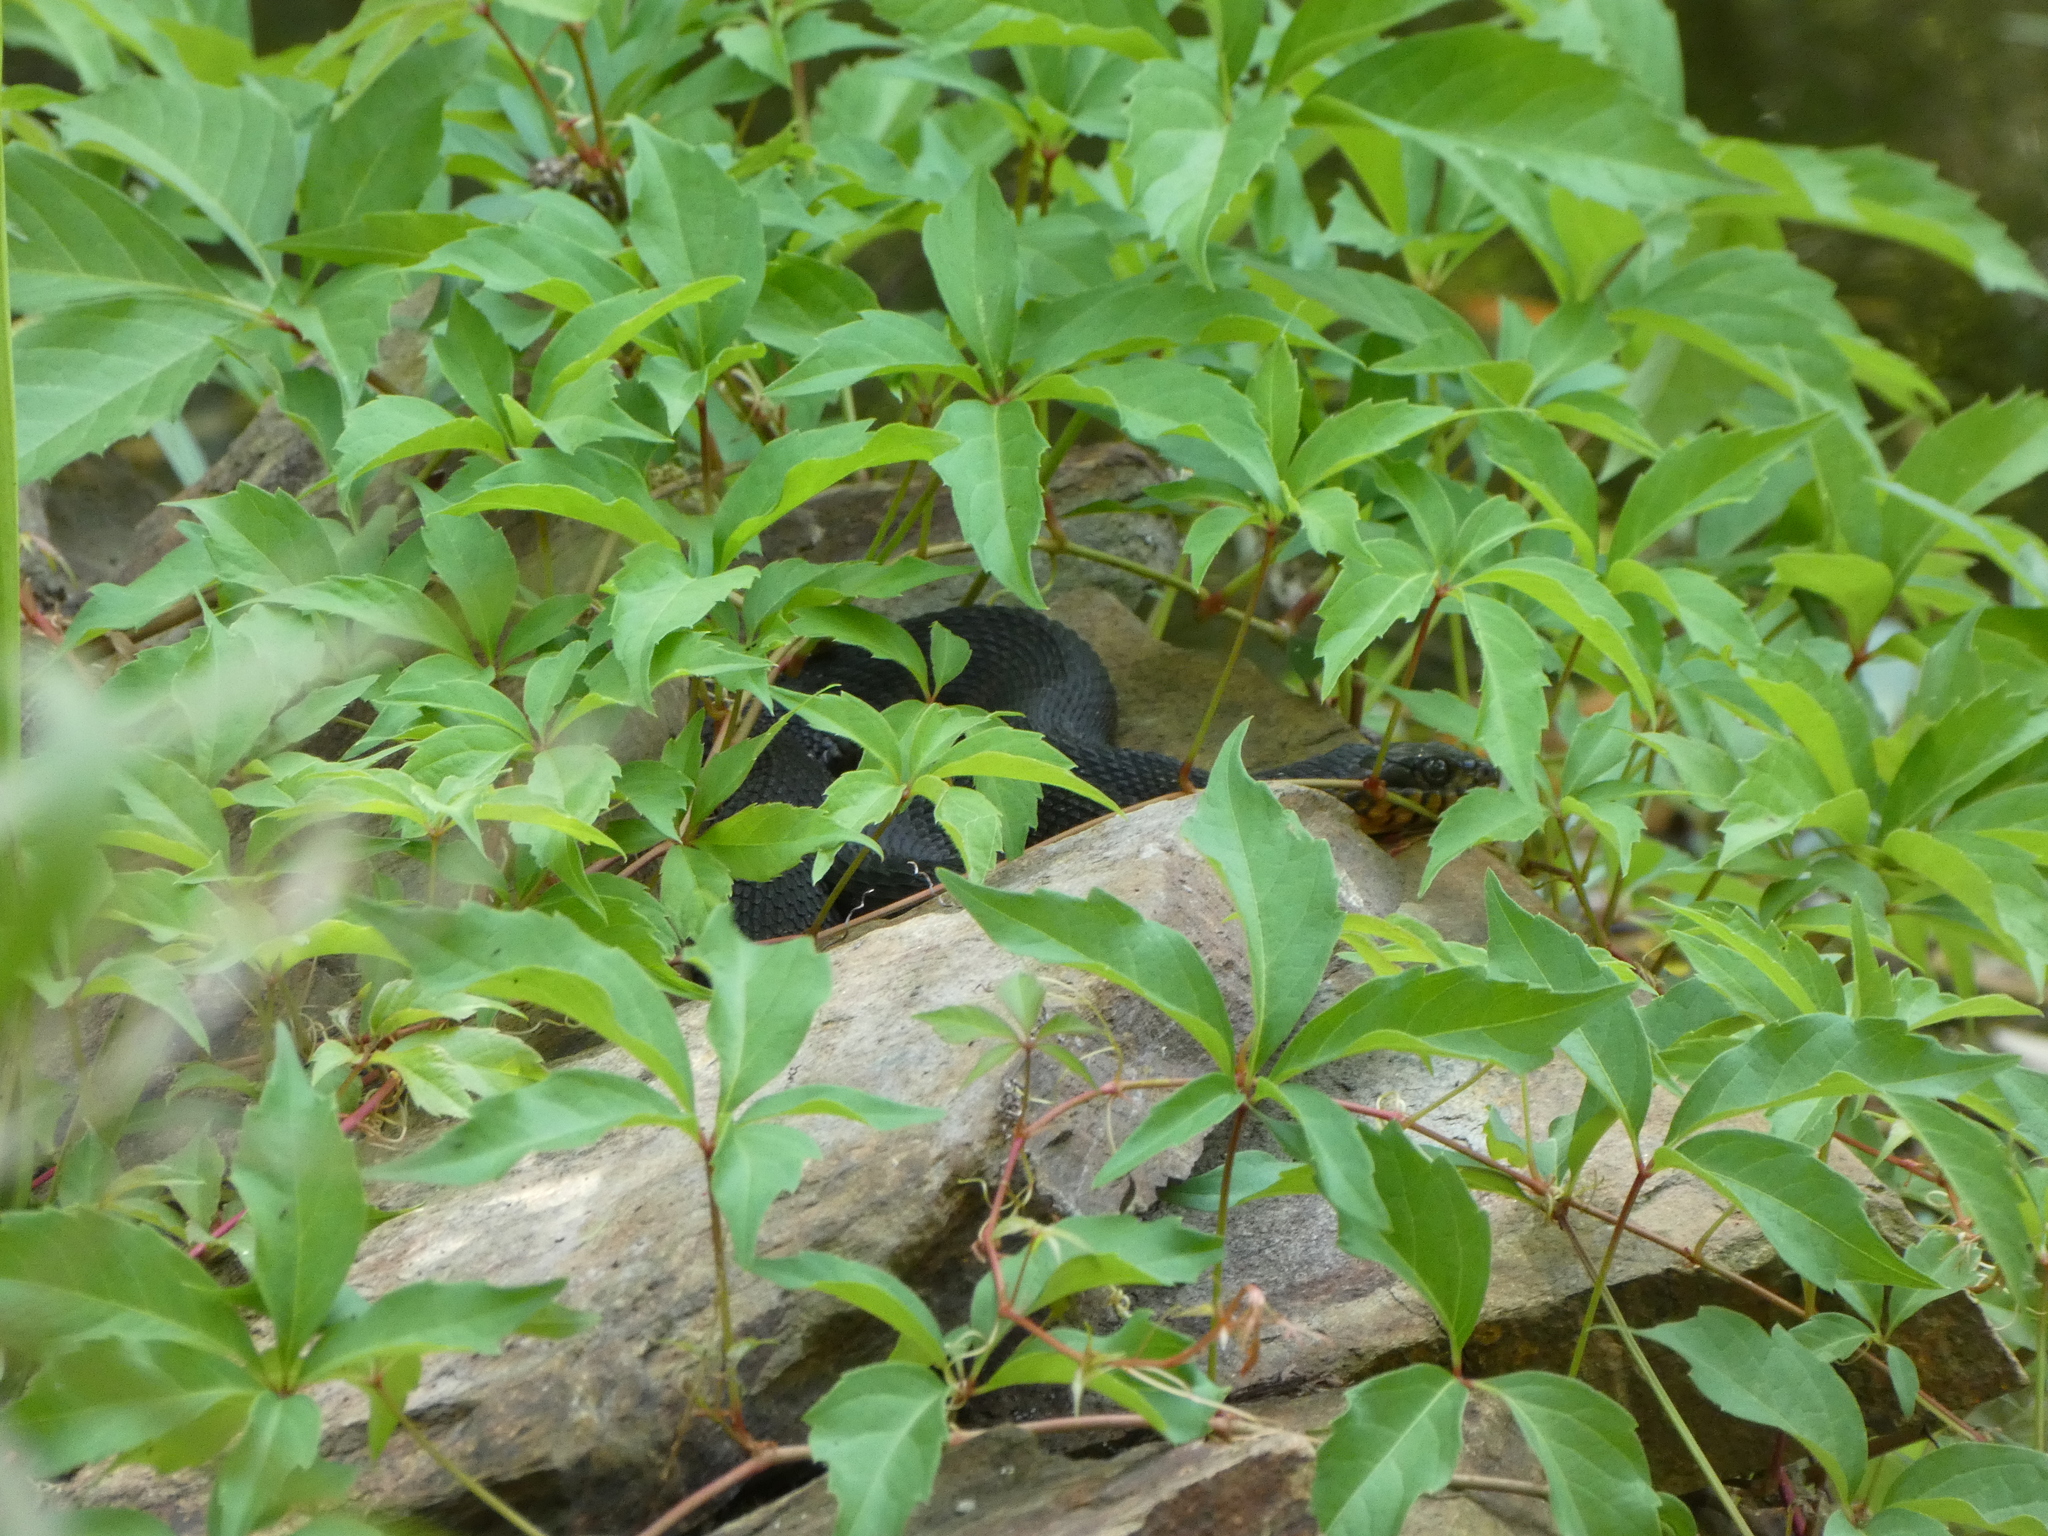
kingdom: Animalia
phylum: Chordata
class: Squamata
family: Colubridae
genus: Nerodia
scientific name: Nerodia fasciata
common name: Southern water snake
